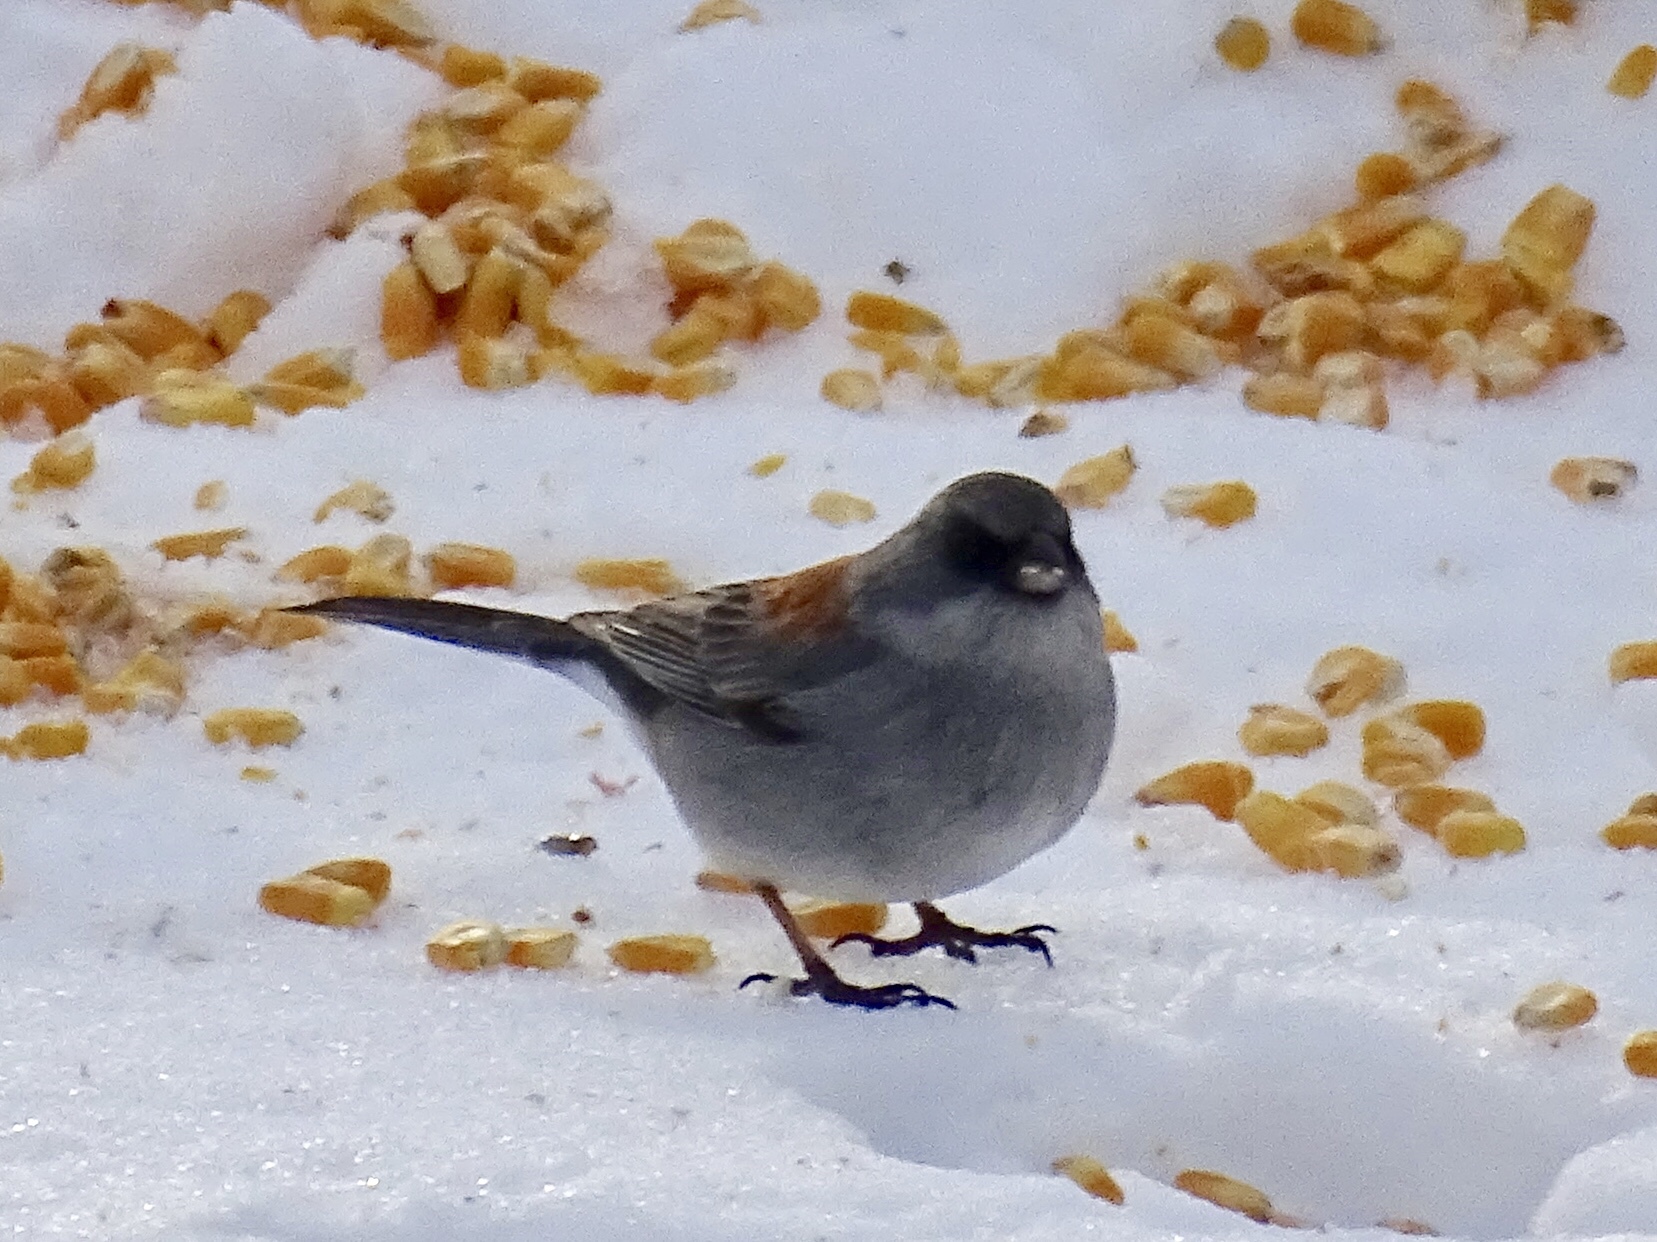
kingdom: Animalia
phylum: Chordata
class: Aves
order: Passeriformes
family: Passerellidae
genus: Junco
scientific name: Junco hyemalis
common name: Dark-eyed junco
